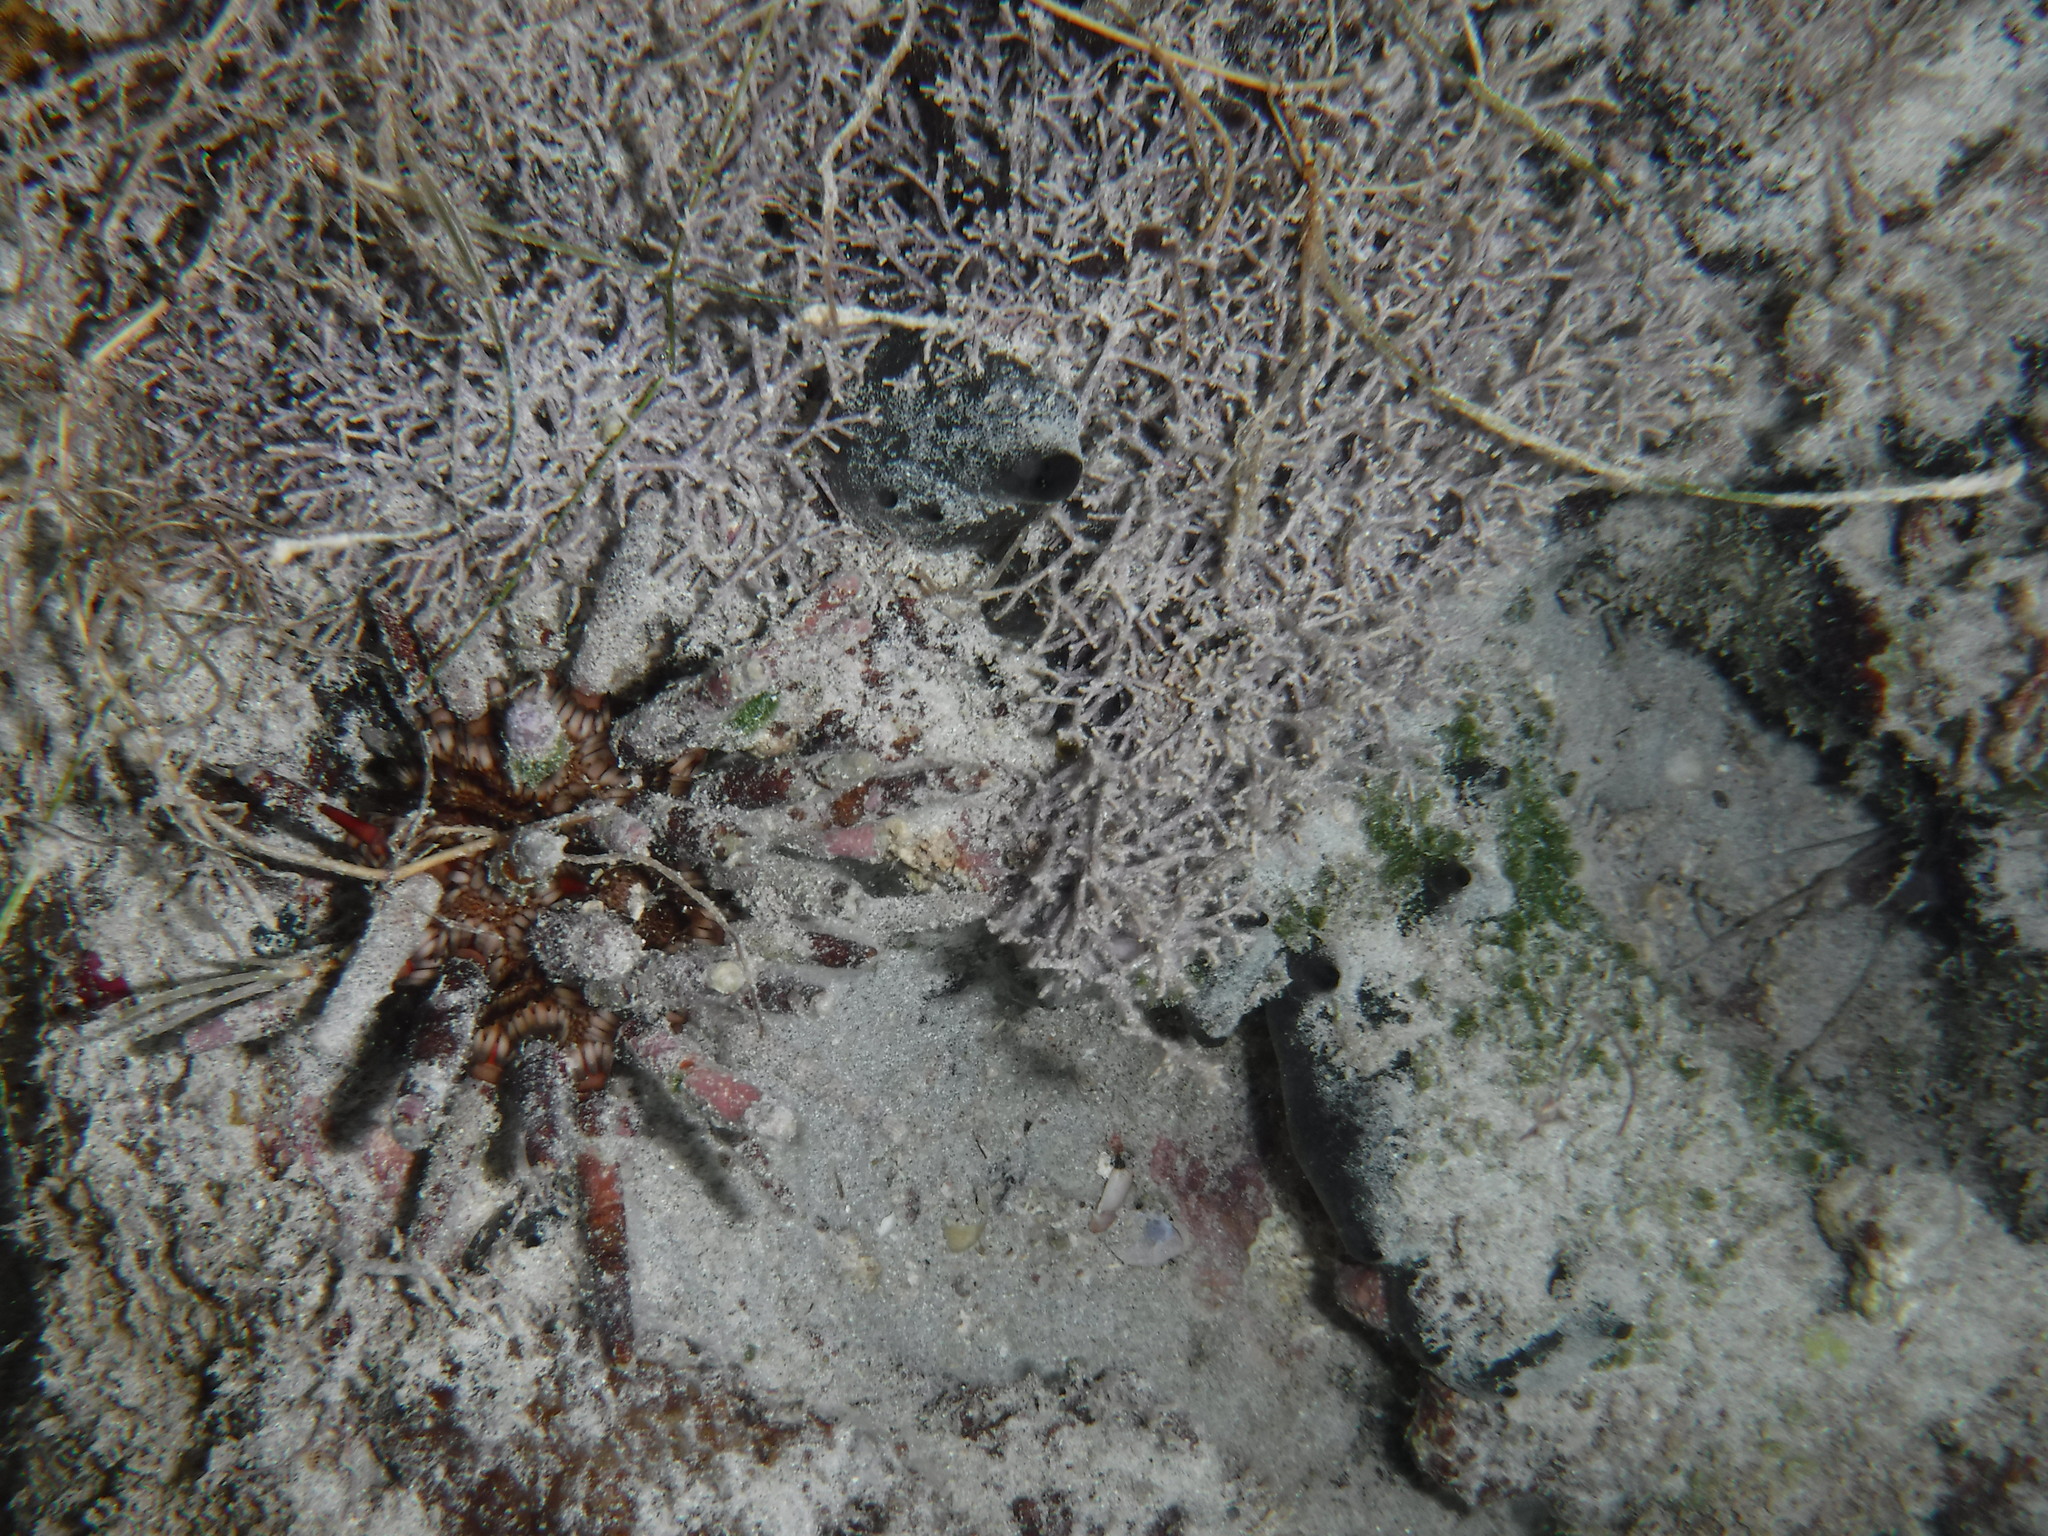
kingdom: Animalia
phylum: Echinodermata
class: Echinoidea
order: Cidaroida
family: Cidaridae
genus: Eucidaris
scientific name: Eucidaris tribuloides
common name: Slate pencil urchin
